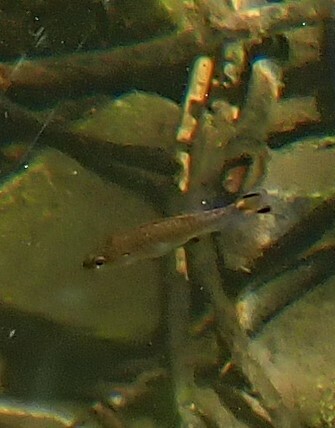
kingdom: Animalia
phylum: Chordata
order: Perciformes
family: Centrarchidae
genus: Micropterus
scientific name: Micropterus dolomieu
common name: Smallmouth bass
